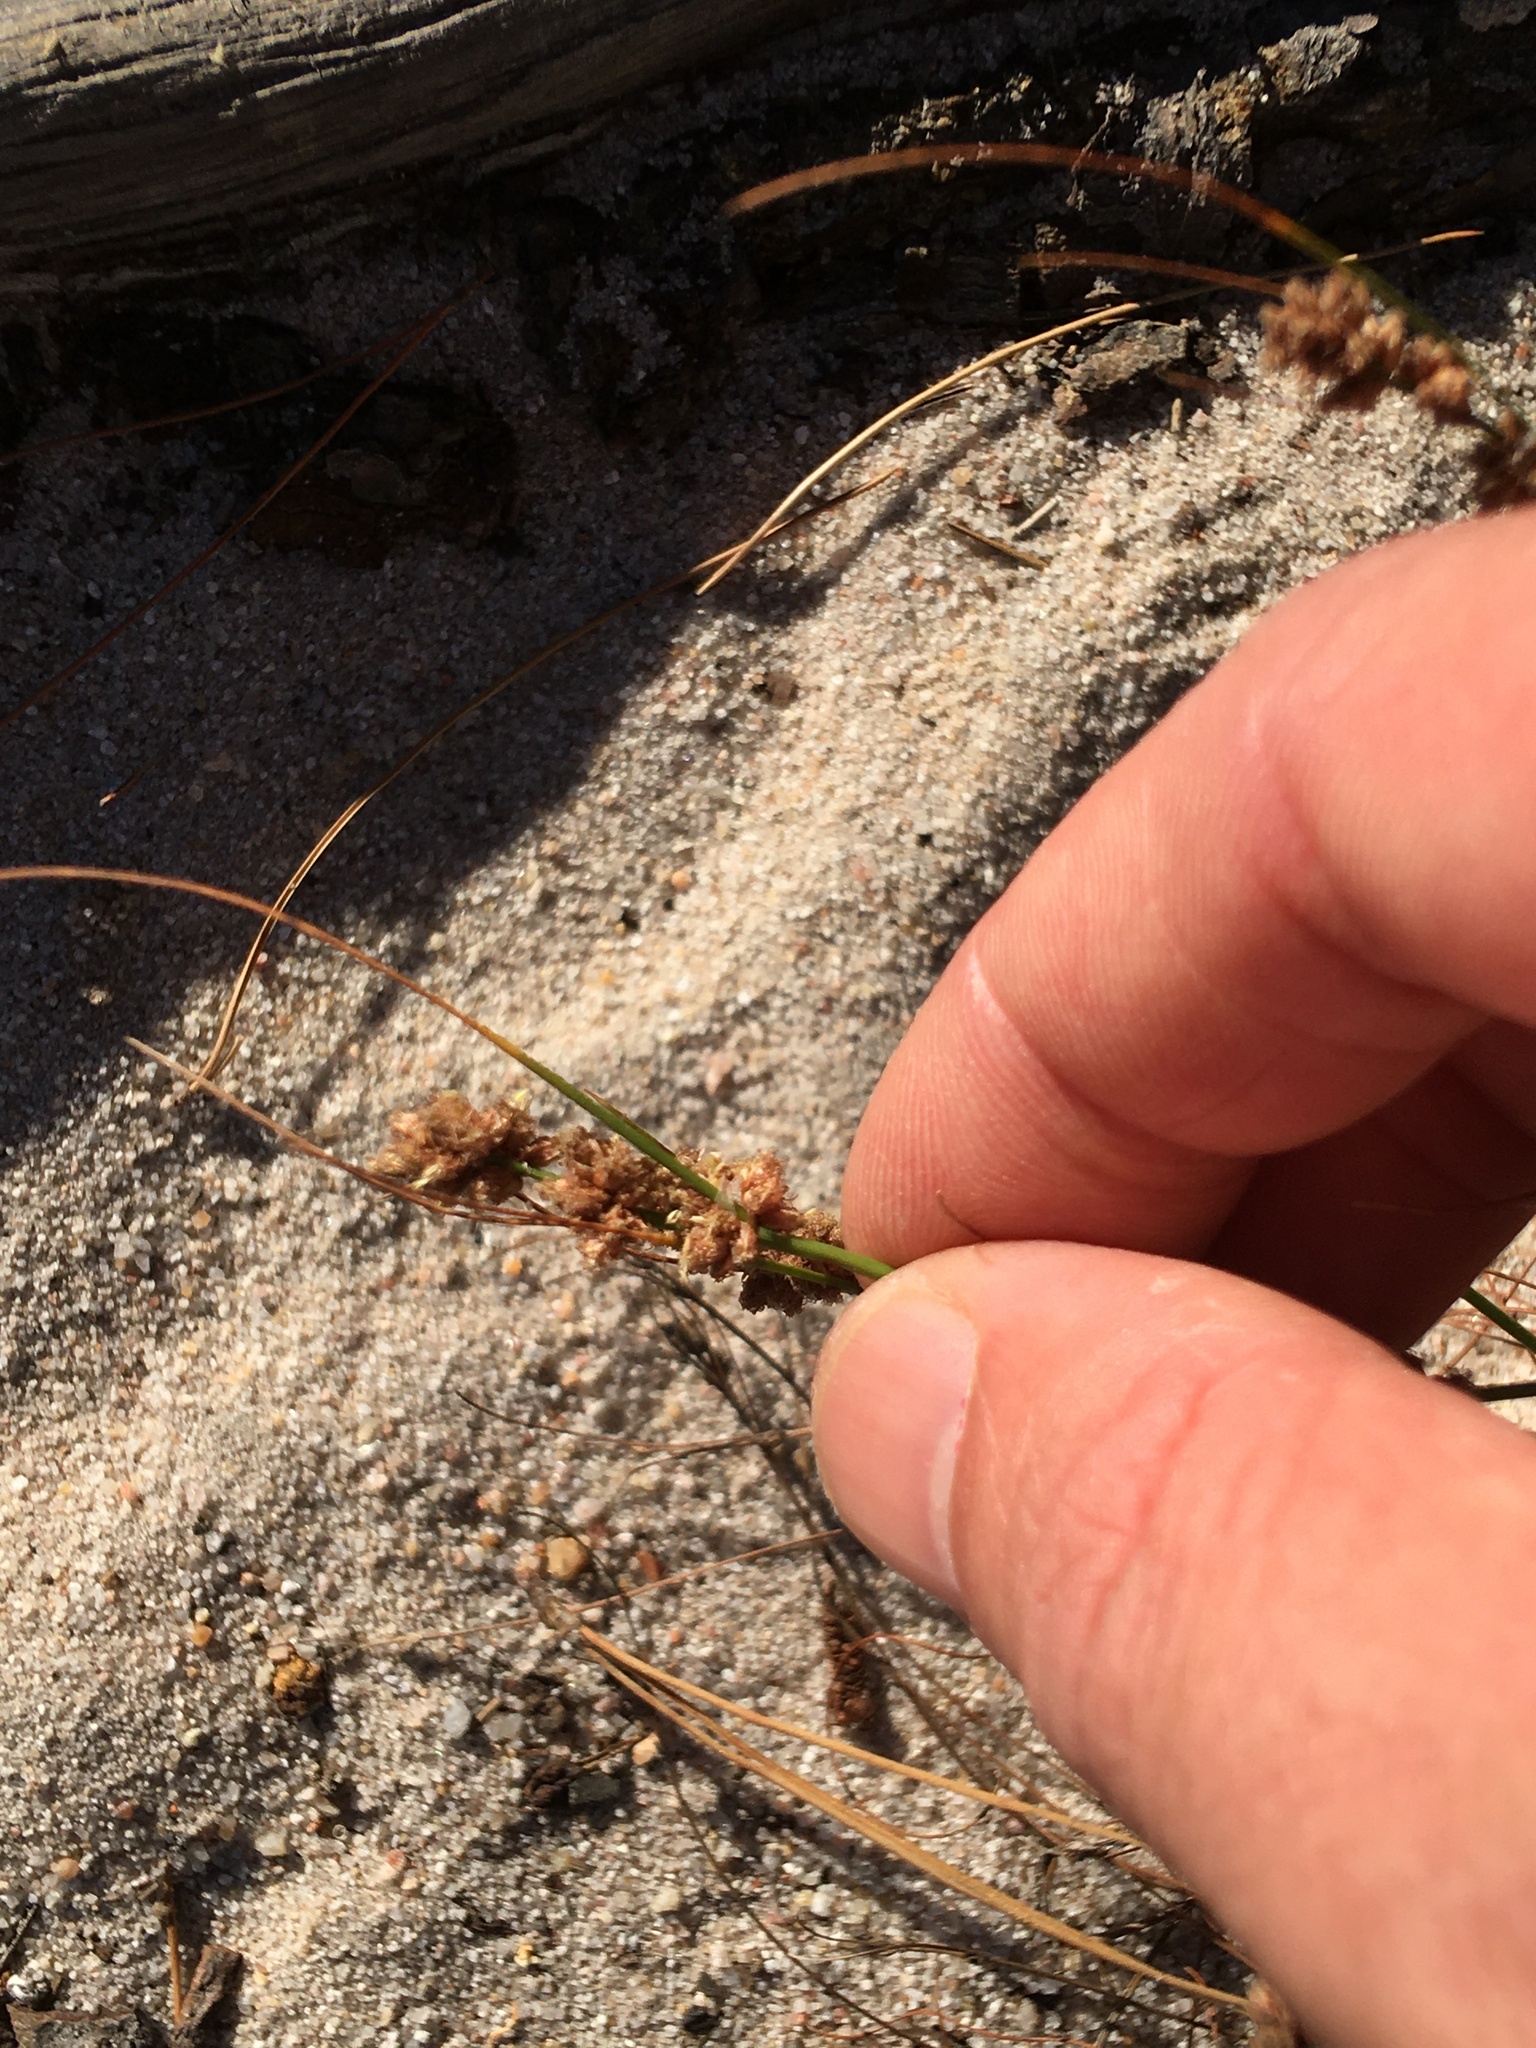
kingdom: Plantae
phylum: Tracheophyta
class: Liliopsida
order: Poales
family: Cyperaceae
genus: Ficinia
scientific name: Ficinia bulbosa
